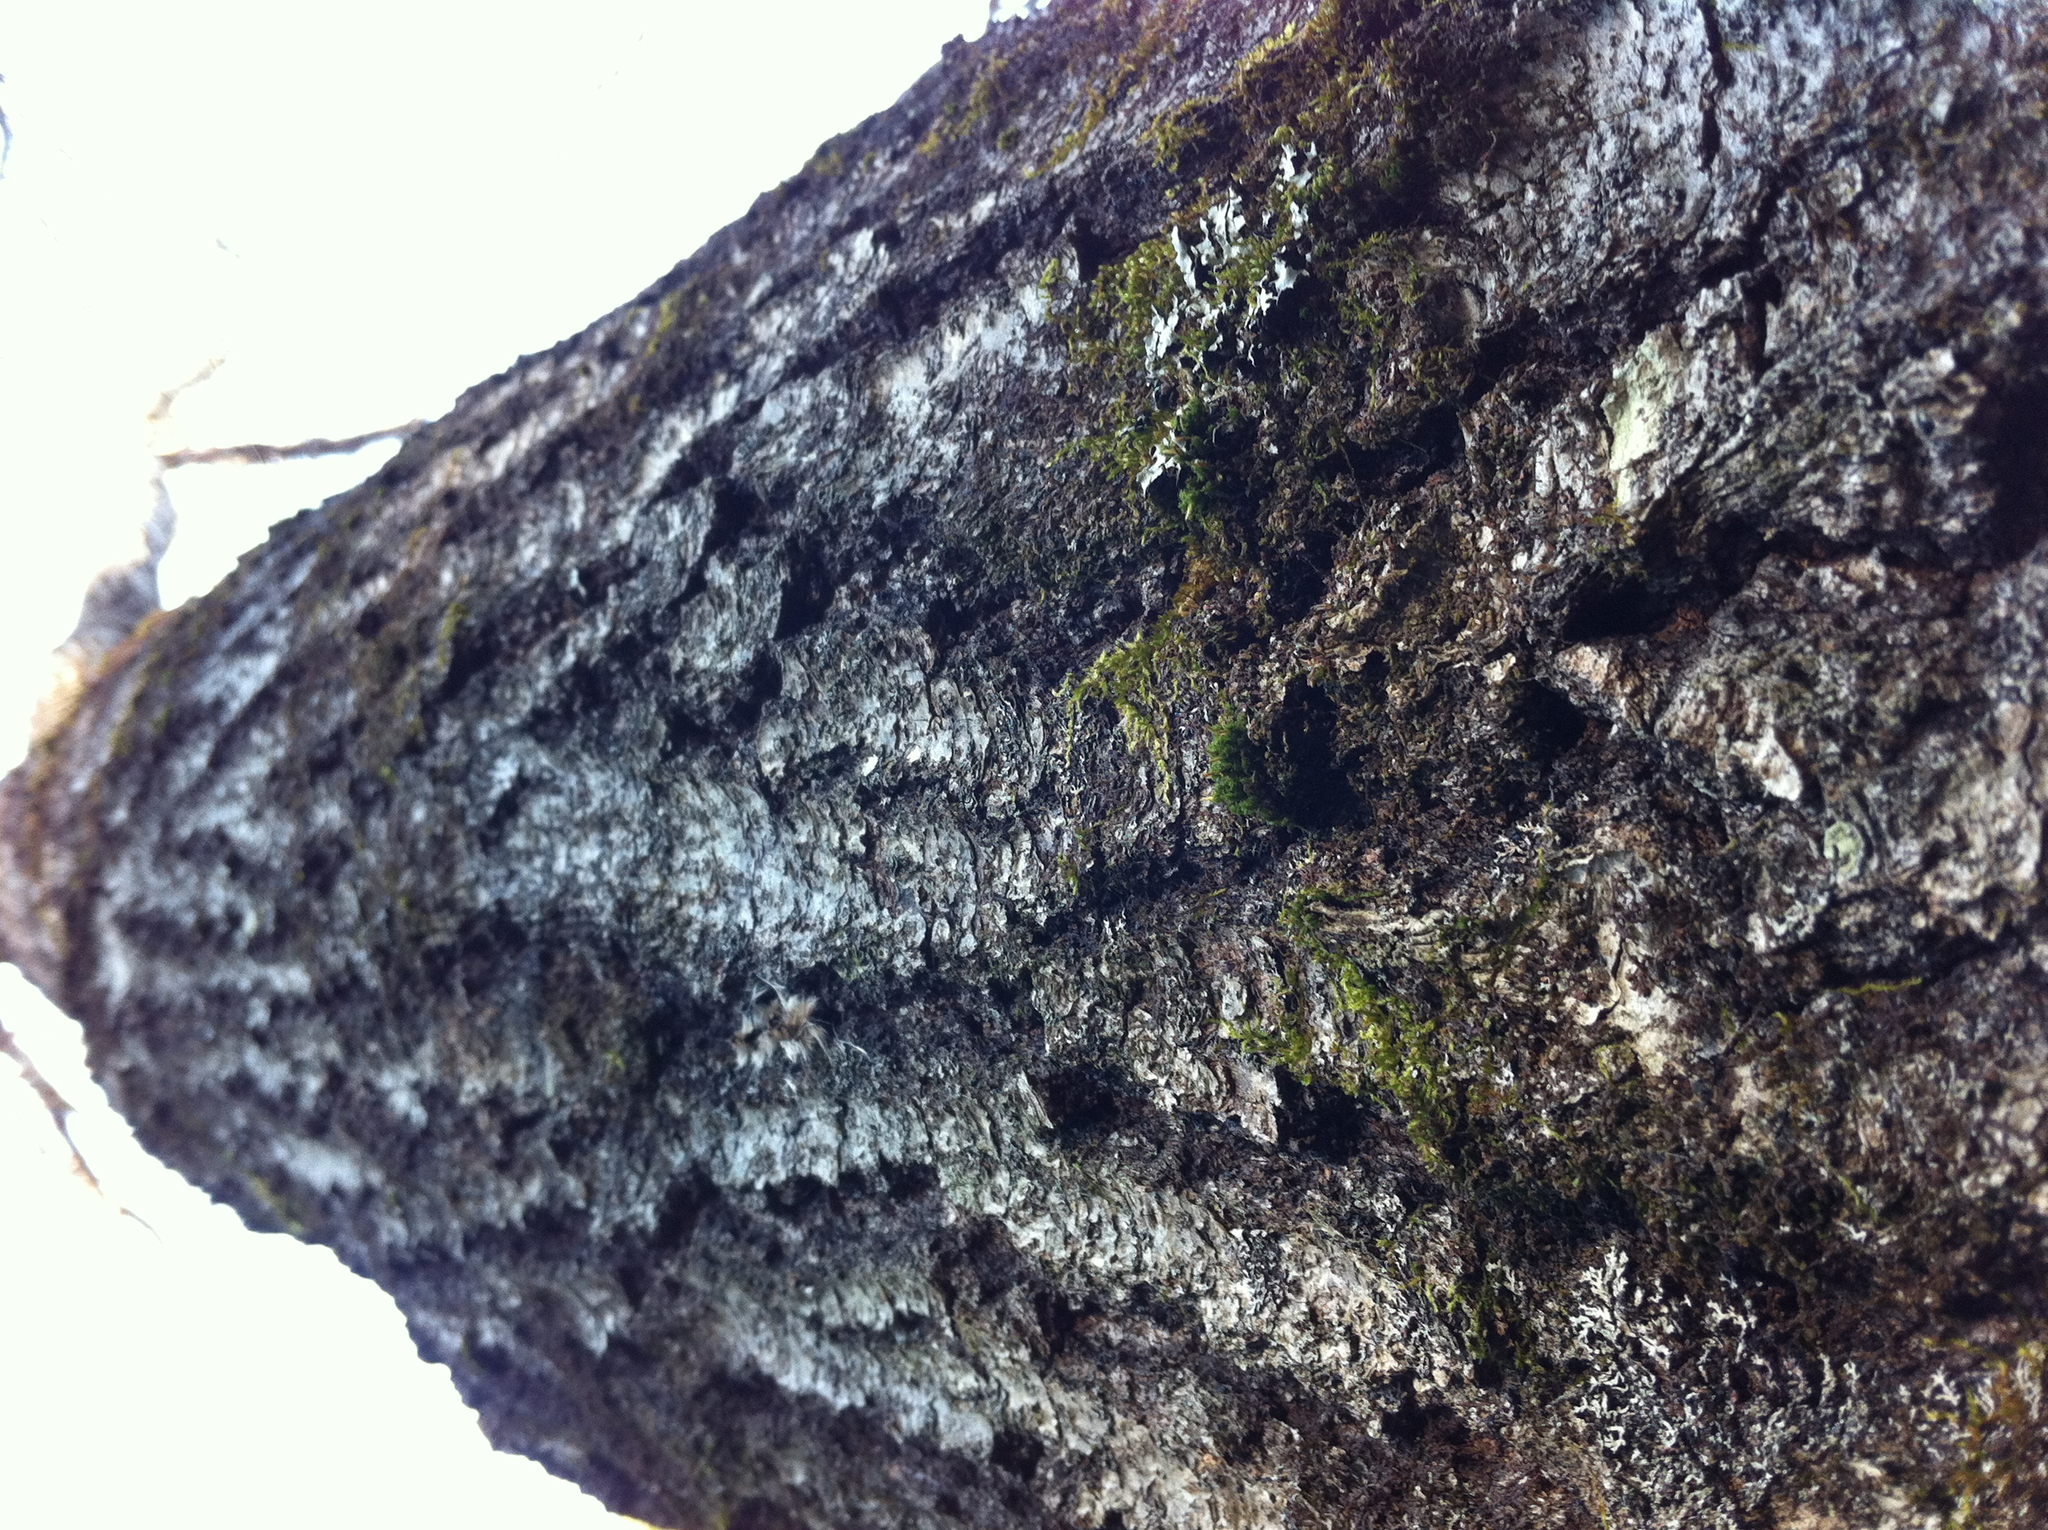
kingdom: Plantae
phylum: Tracheophyta
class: Magnoliopsida
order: Fagales
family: Fagaceae
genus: Quercus
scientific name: Quercus rubra
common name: Red oak
